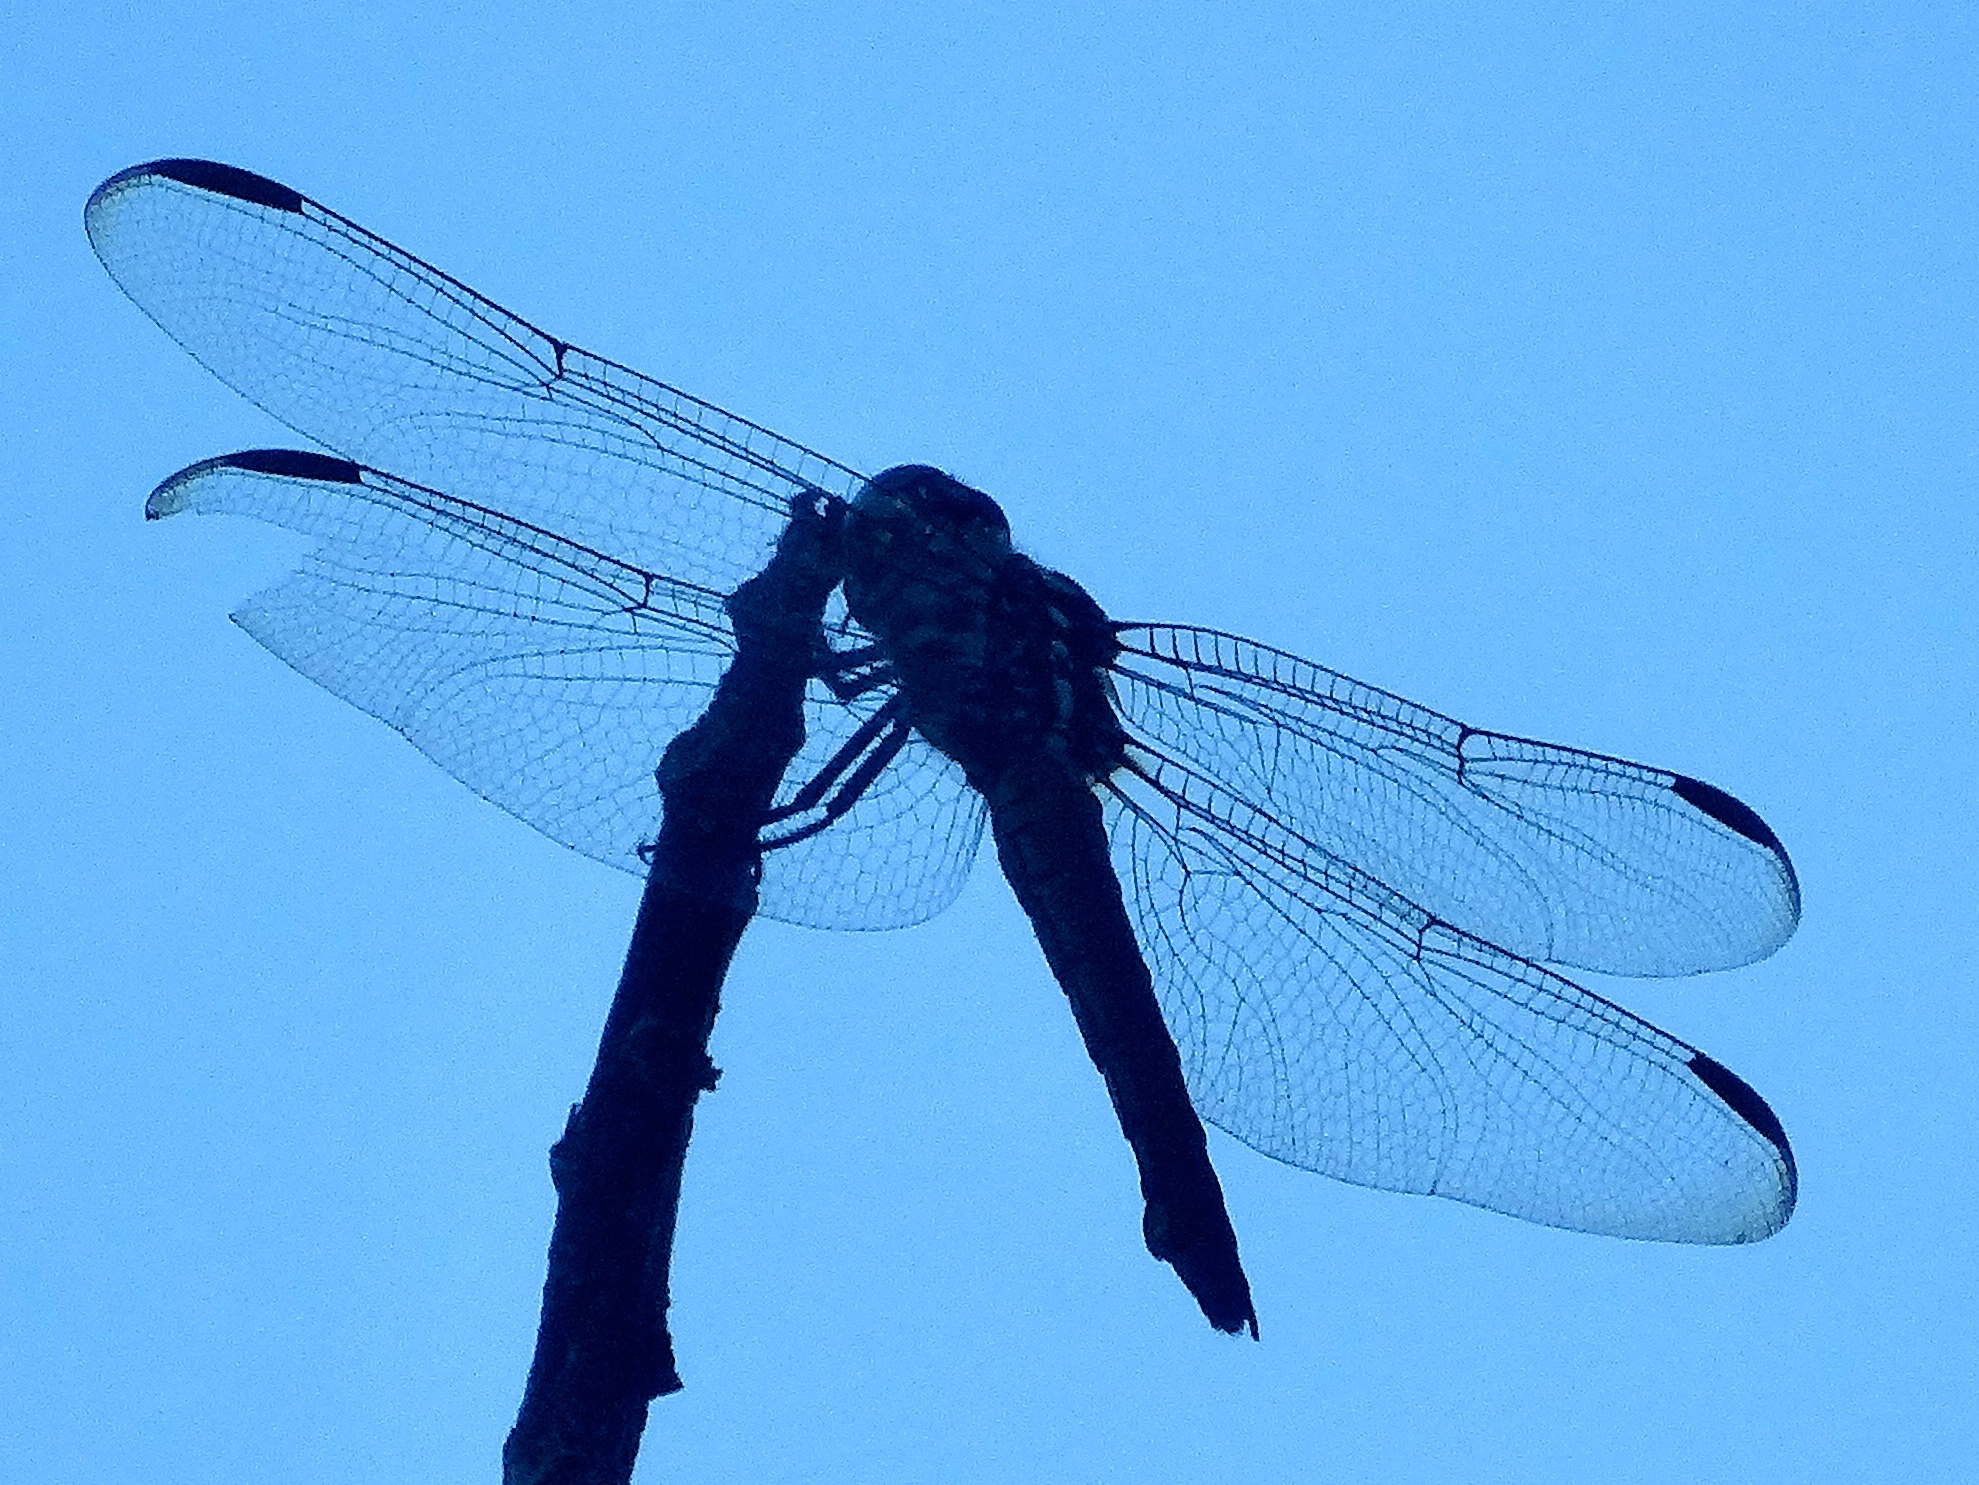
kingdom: Animalia
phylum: Arthropoda
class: Insecta
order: Odonata
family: Libellulidae
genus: Orthemis
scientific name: Orthemis
